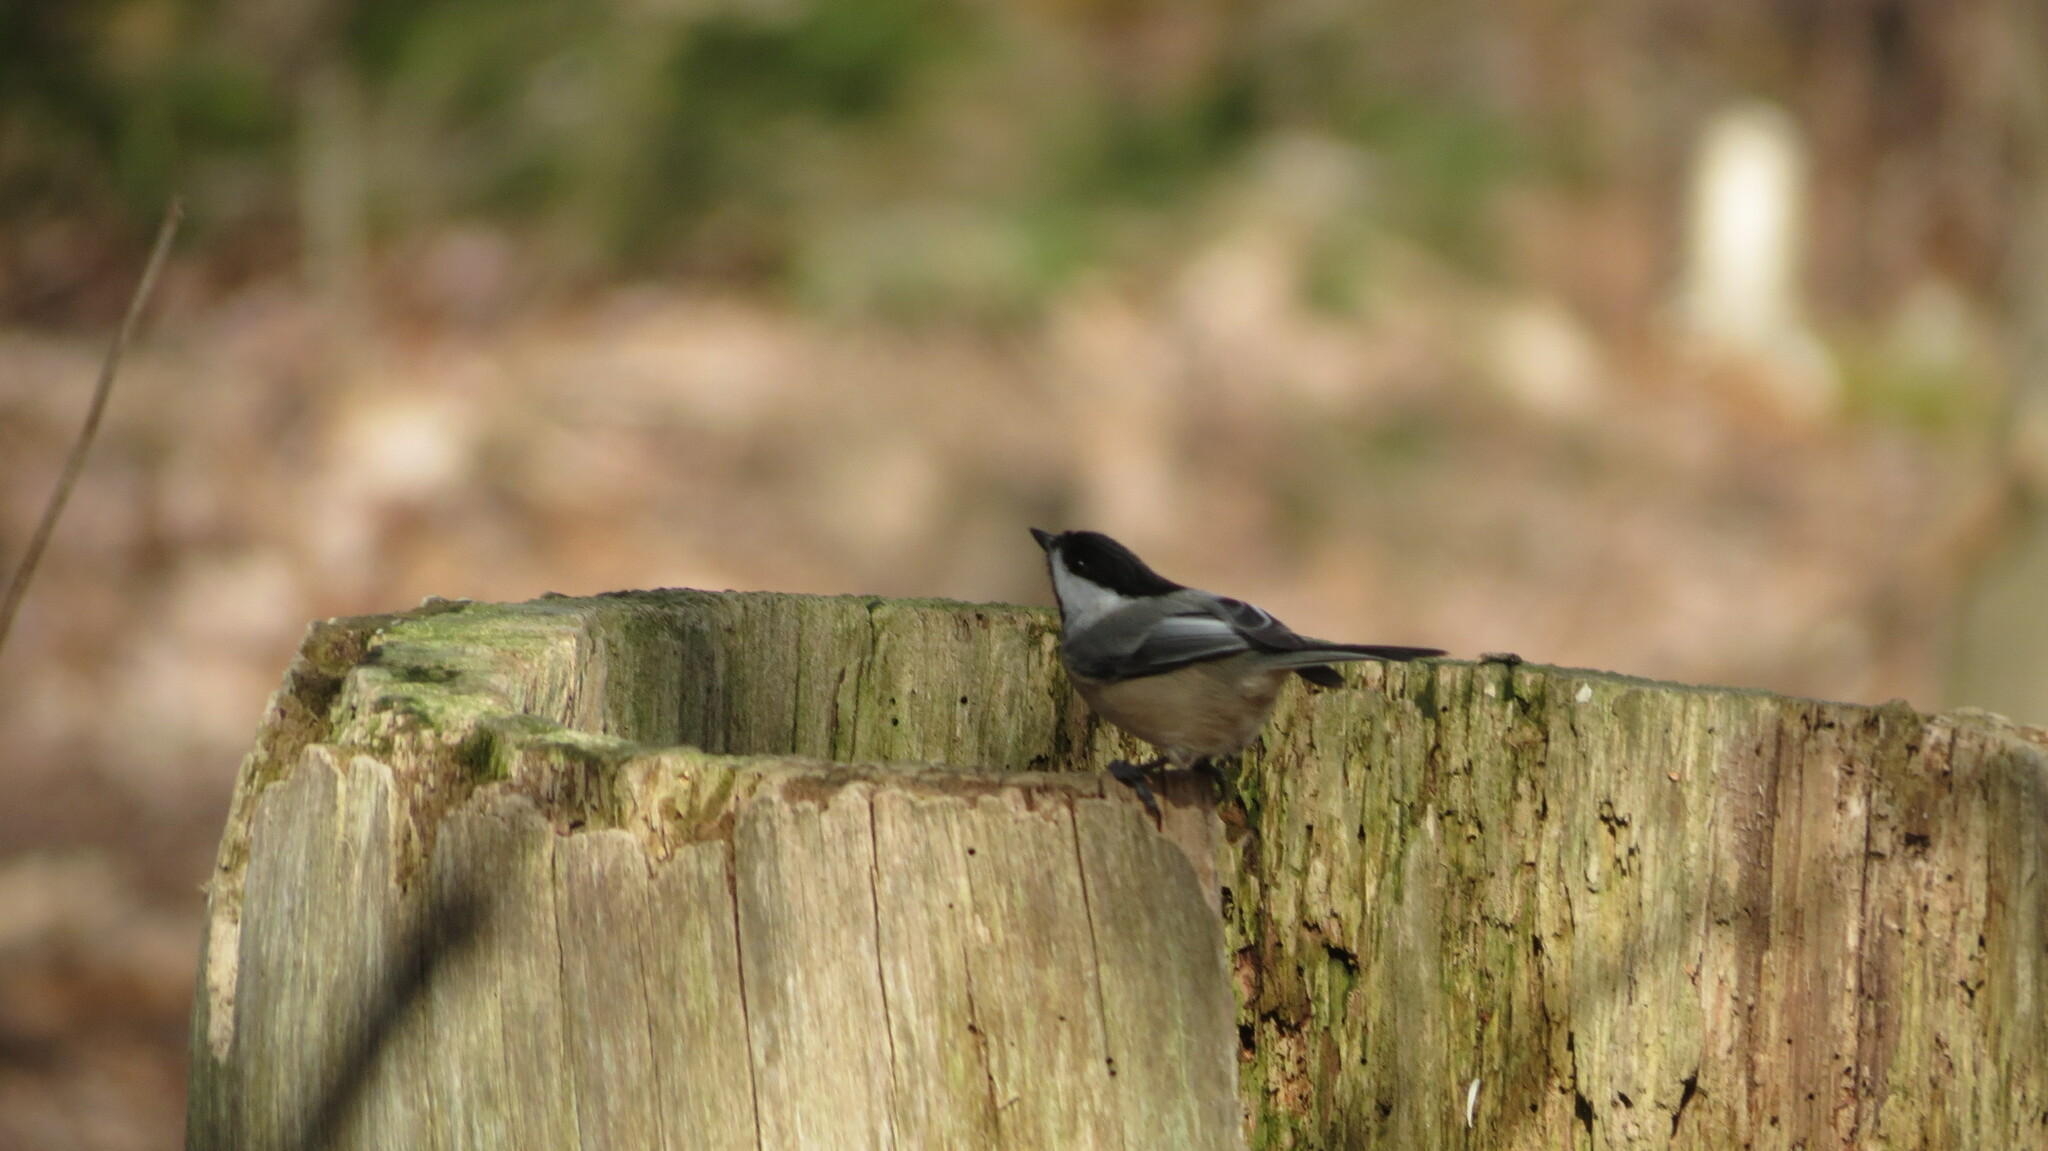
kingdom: Animalia
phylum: Chordata
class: Aves
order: Passeriformes
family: Paridae
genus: Poecile
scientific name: Poecile atricapillus
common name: Black-capped chickadee
